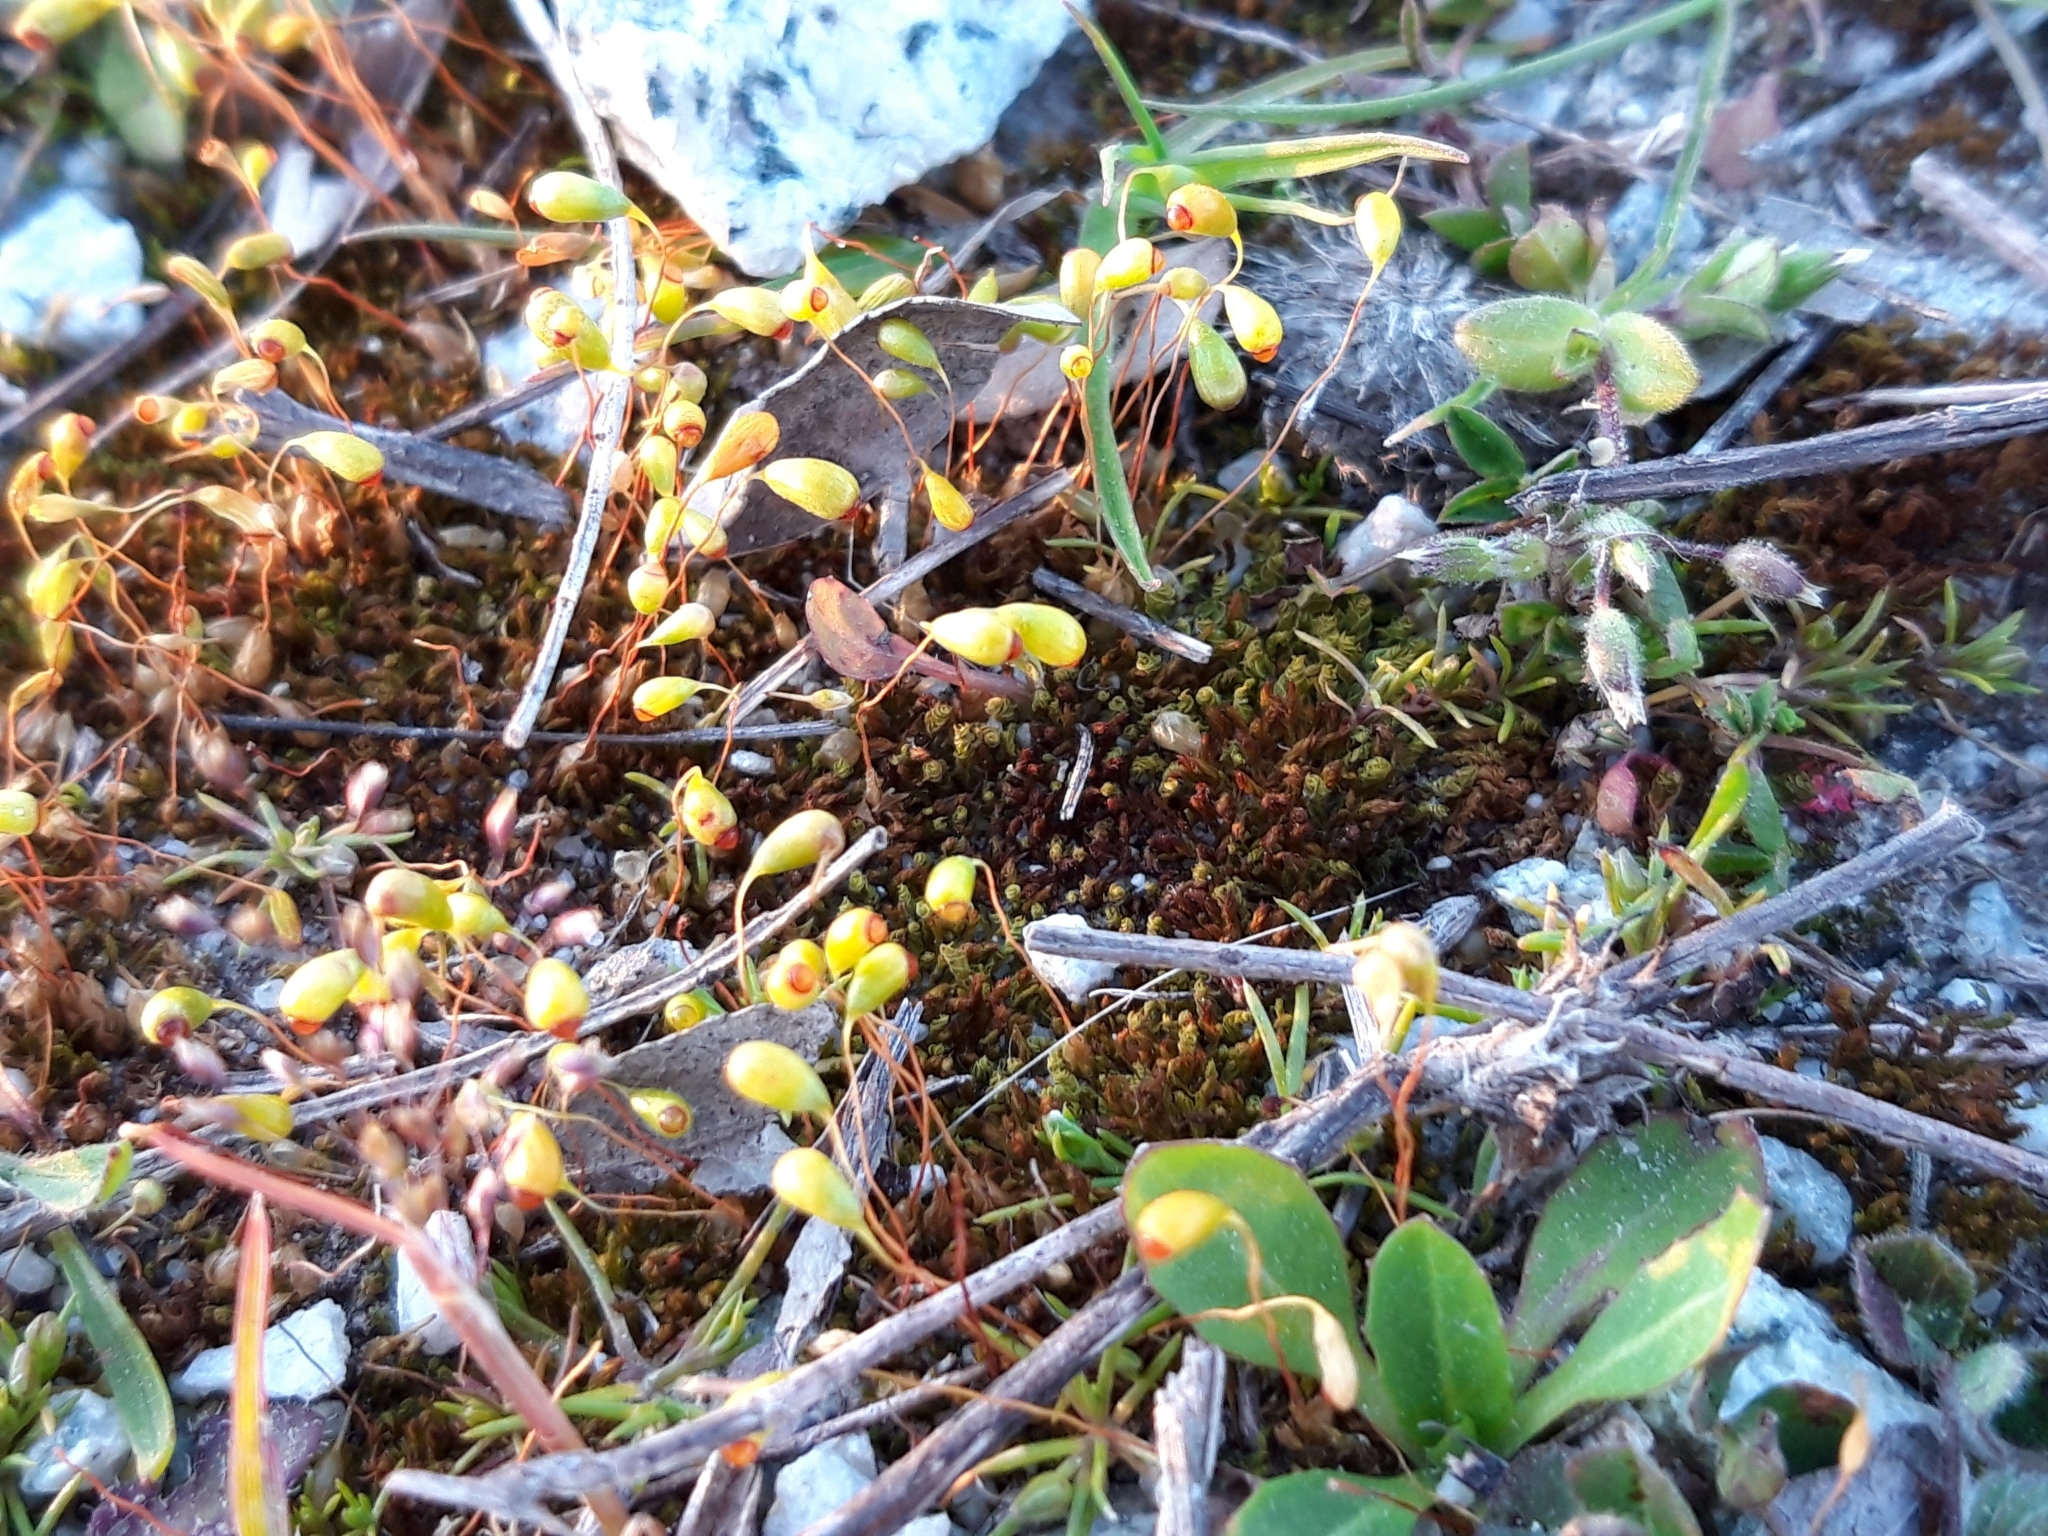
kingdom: Plantae
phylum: Bryophyta
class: Bryopsida
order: Funariales
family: Funariaceae
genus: Funaria
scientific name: Funaria hygrometrica
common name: Common cord moss
